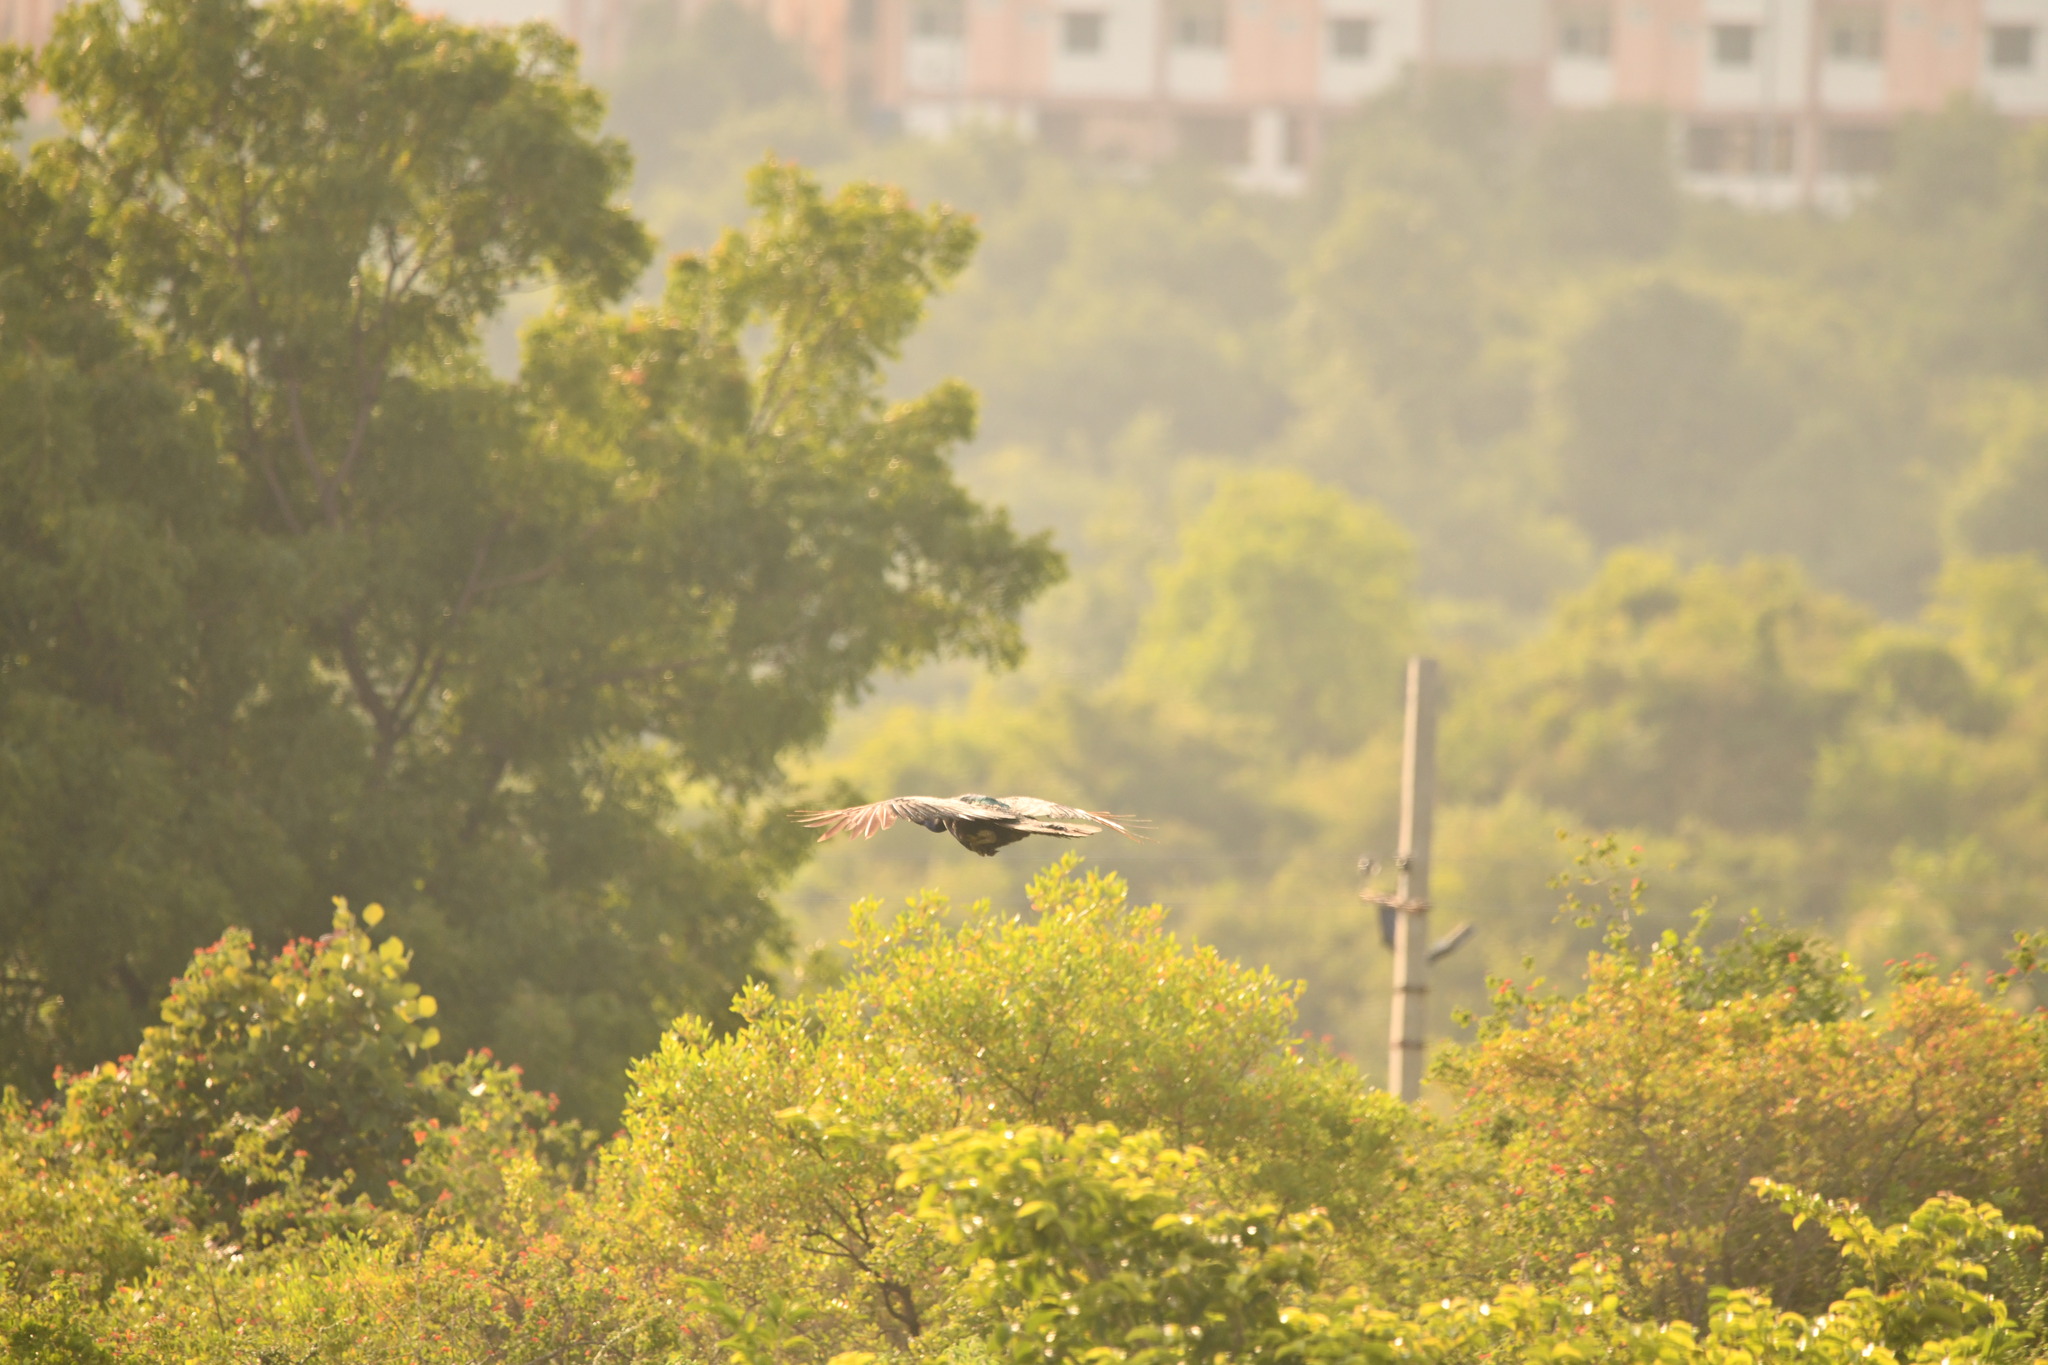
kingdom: Animalia
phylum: Chordata
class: Aves
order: Galliformes
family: Phasianidae
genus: Pavo
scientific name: Pavo cristatus
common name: Indian peafowl
